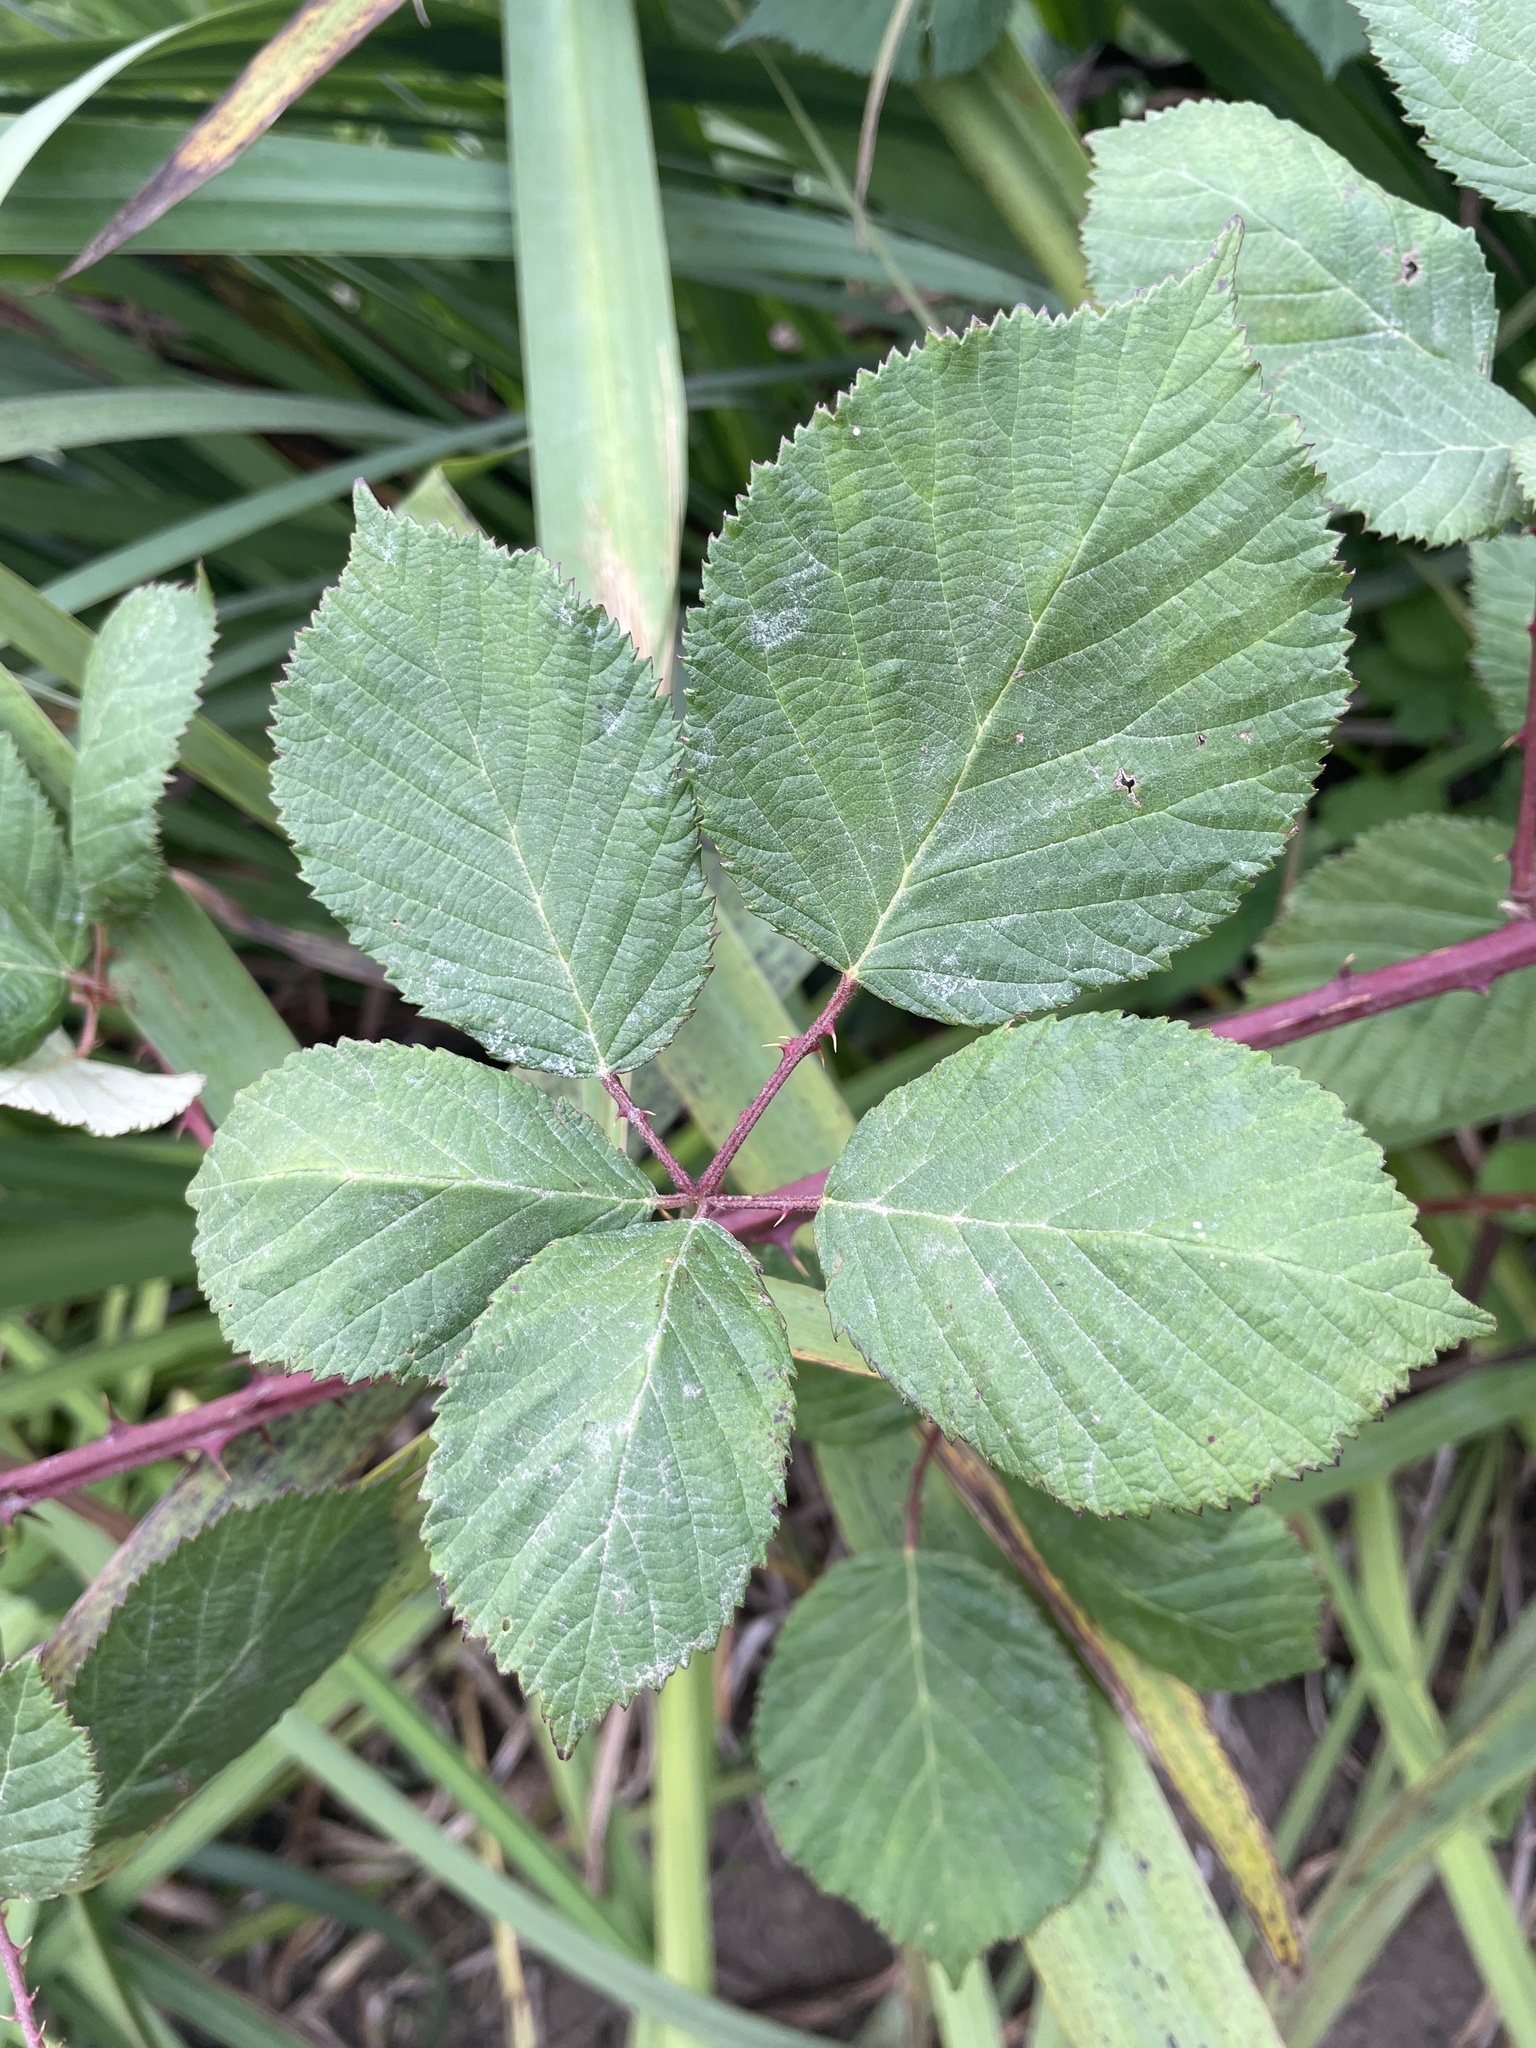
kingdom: Plantae
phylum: Tracheophyta
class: Magnoliopsida
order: Rosales
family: Rosaceae
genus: Rubus
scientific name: Rubus armeniacus
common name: Himalayan blackberry
